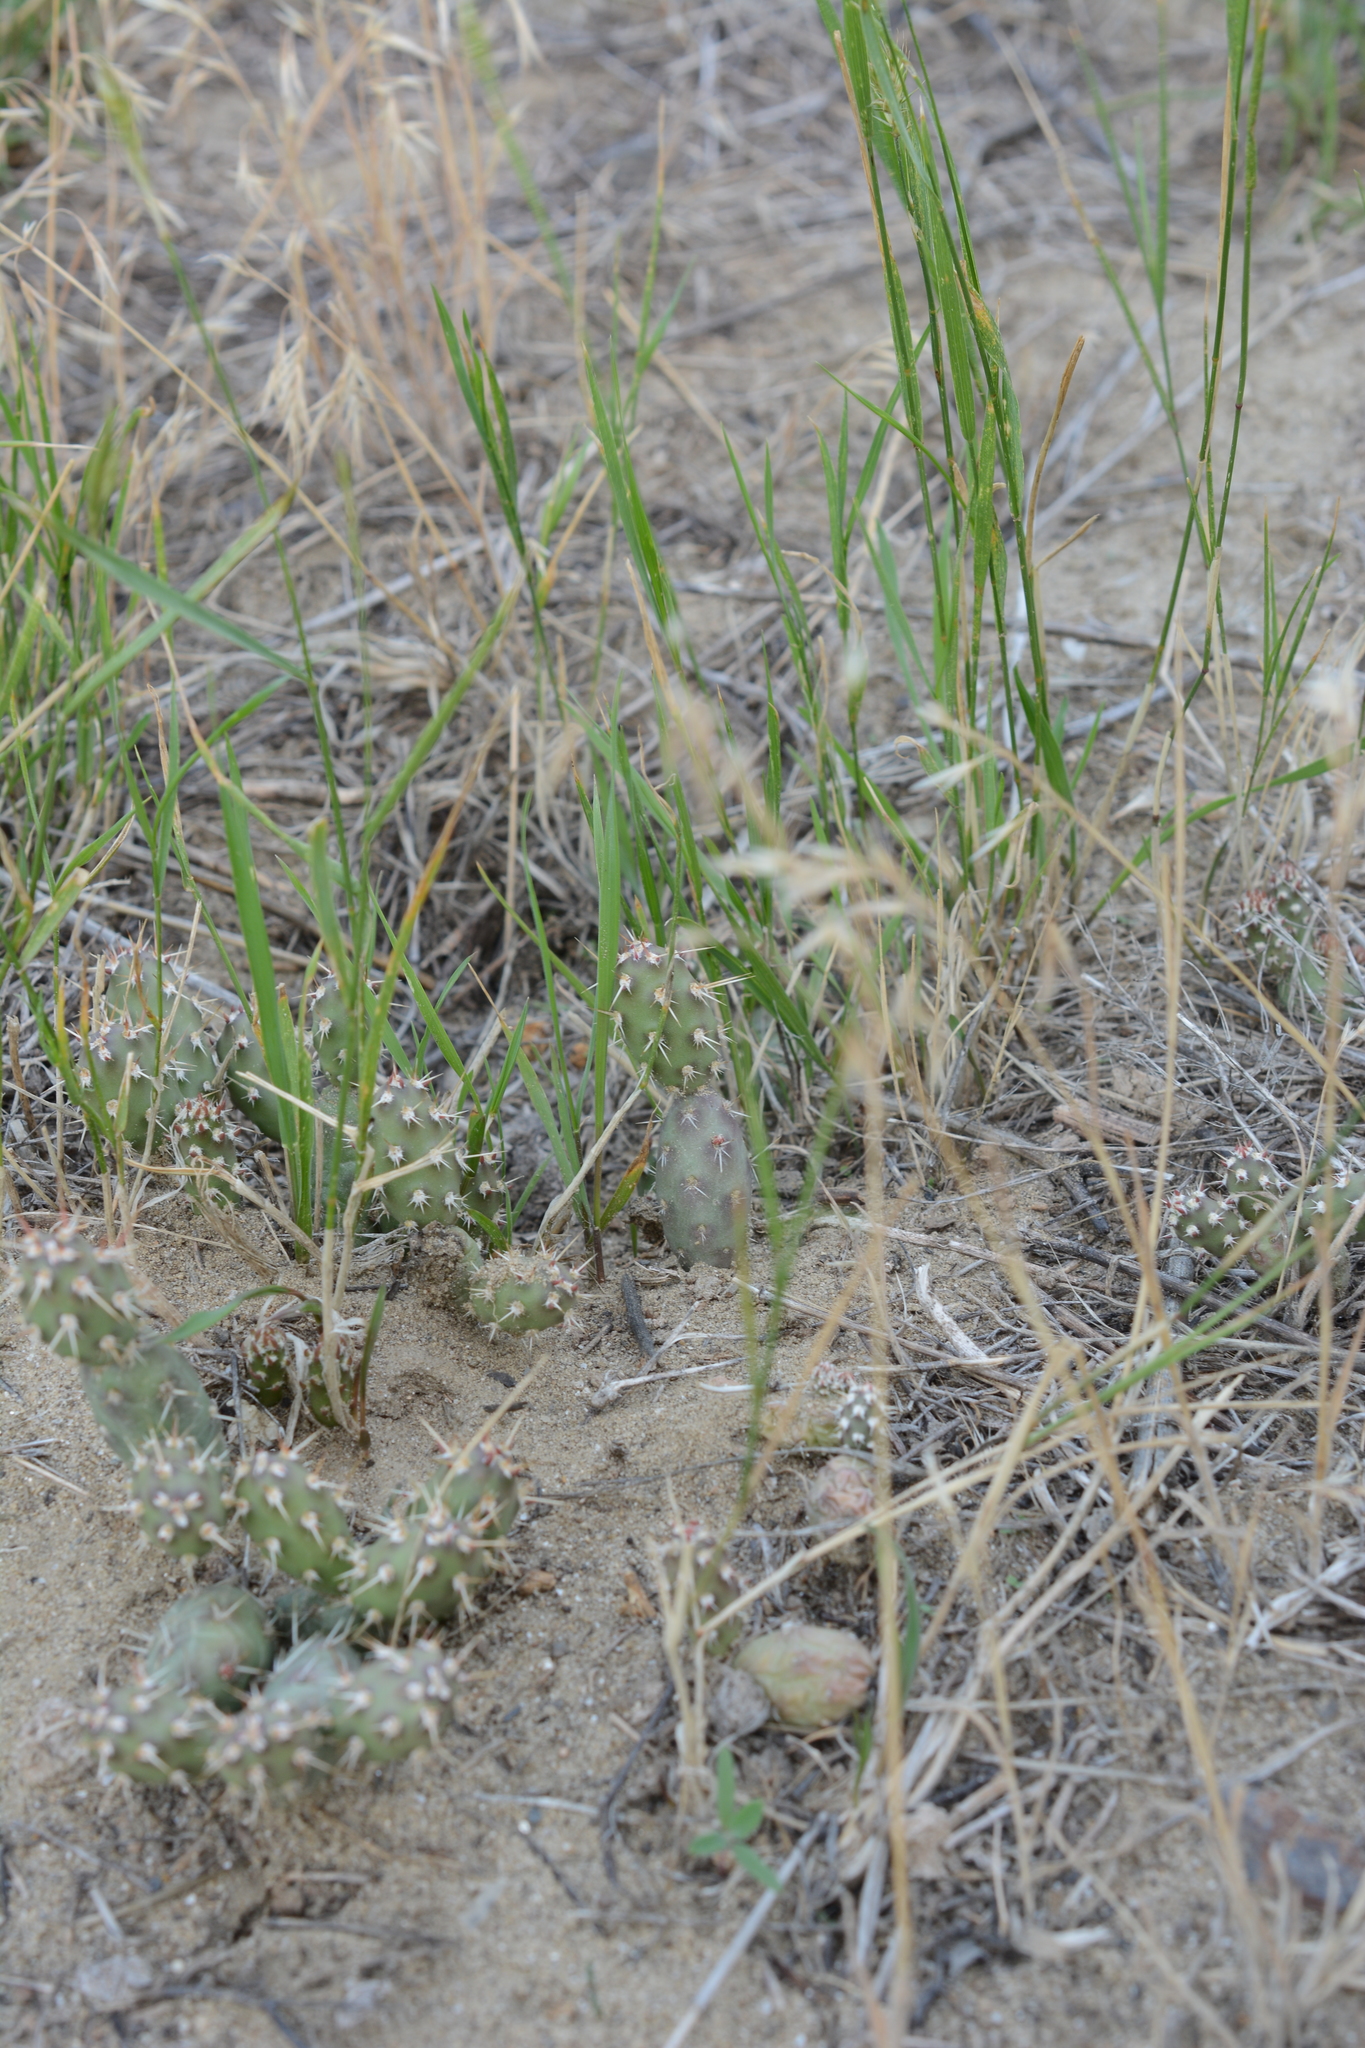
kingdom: Plantae
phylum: Tracheophyta
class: Magnoliopsida
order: Caryophyllales
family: Cactaceae
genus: Opuntia
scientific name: Opuntia fragilis
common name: Brittle cactus
